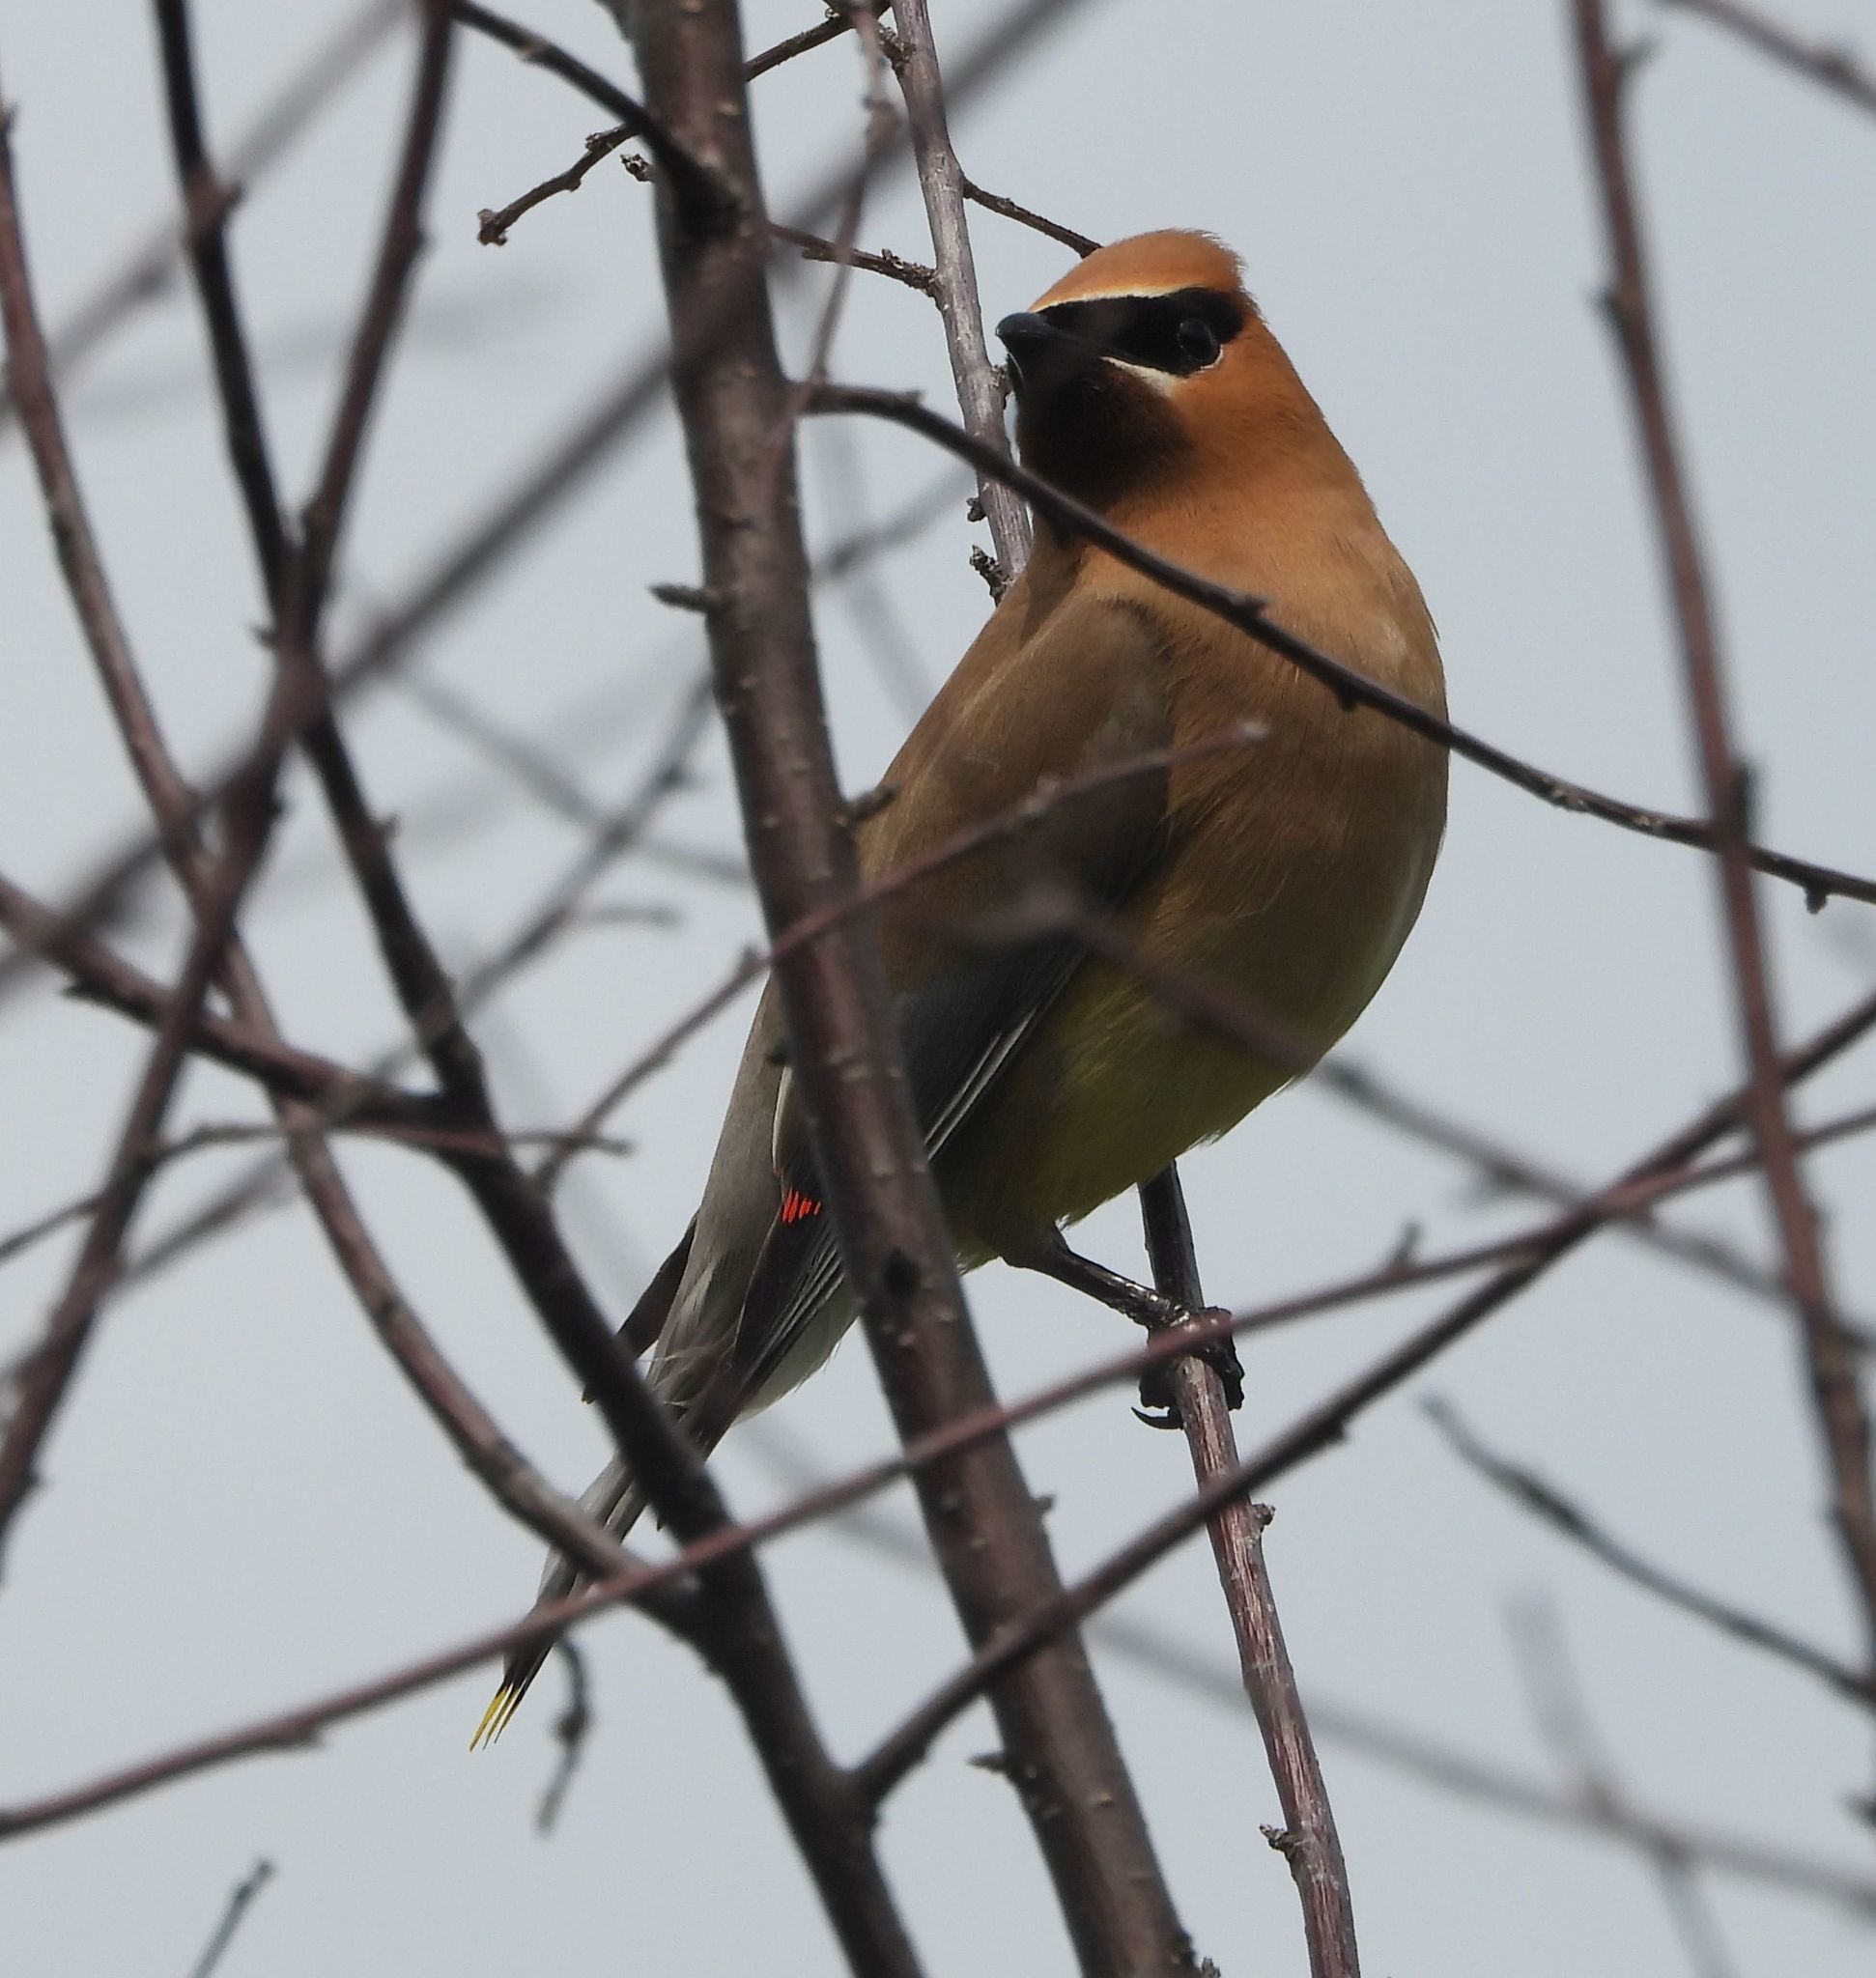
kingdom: Animalia
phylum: Chordata
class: Aves
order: Passeriformes
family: Bombycillidae
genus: Bombycilla
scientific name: Bombycilla cedrorum
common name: Cedar waxwing
